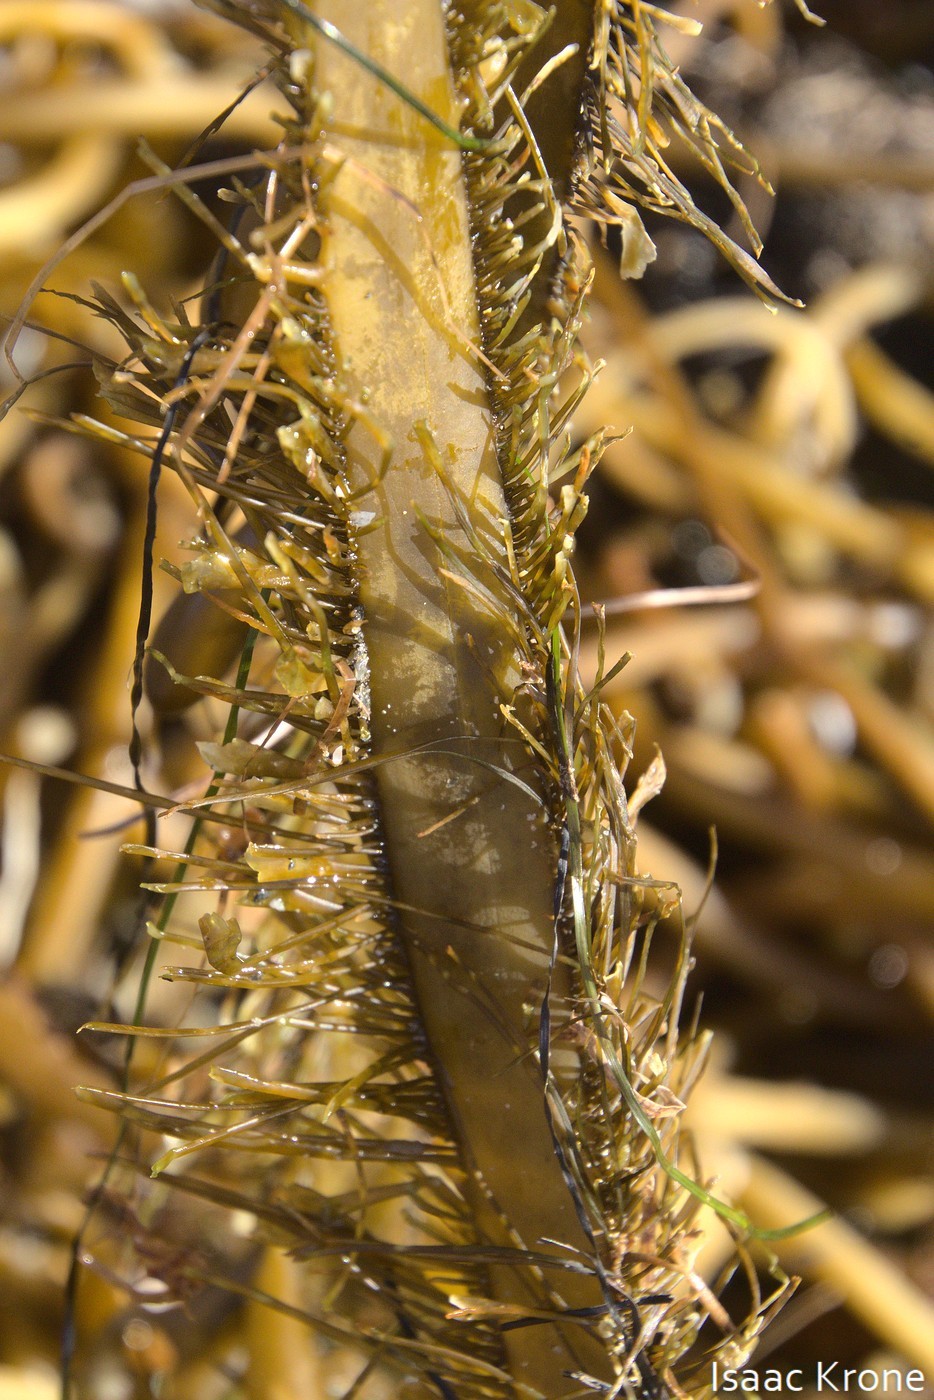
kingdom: Chromista
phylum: Ochrophyta
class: Phaeophyceae
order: Laminariales
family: Lessoniaceae
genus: Egregia
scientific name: Egregia menziesii
